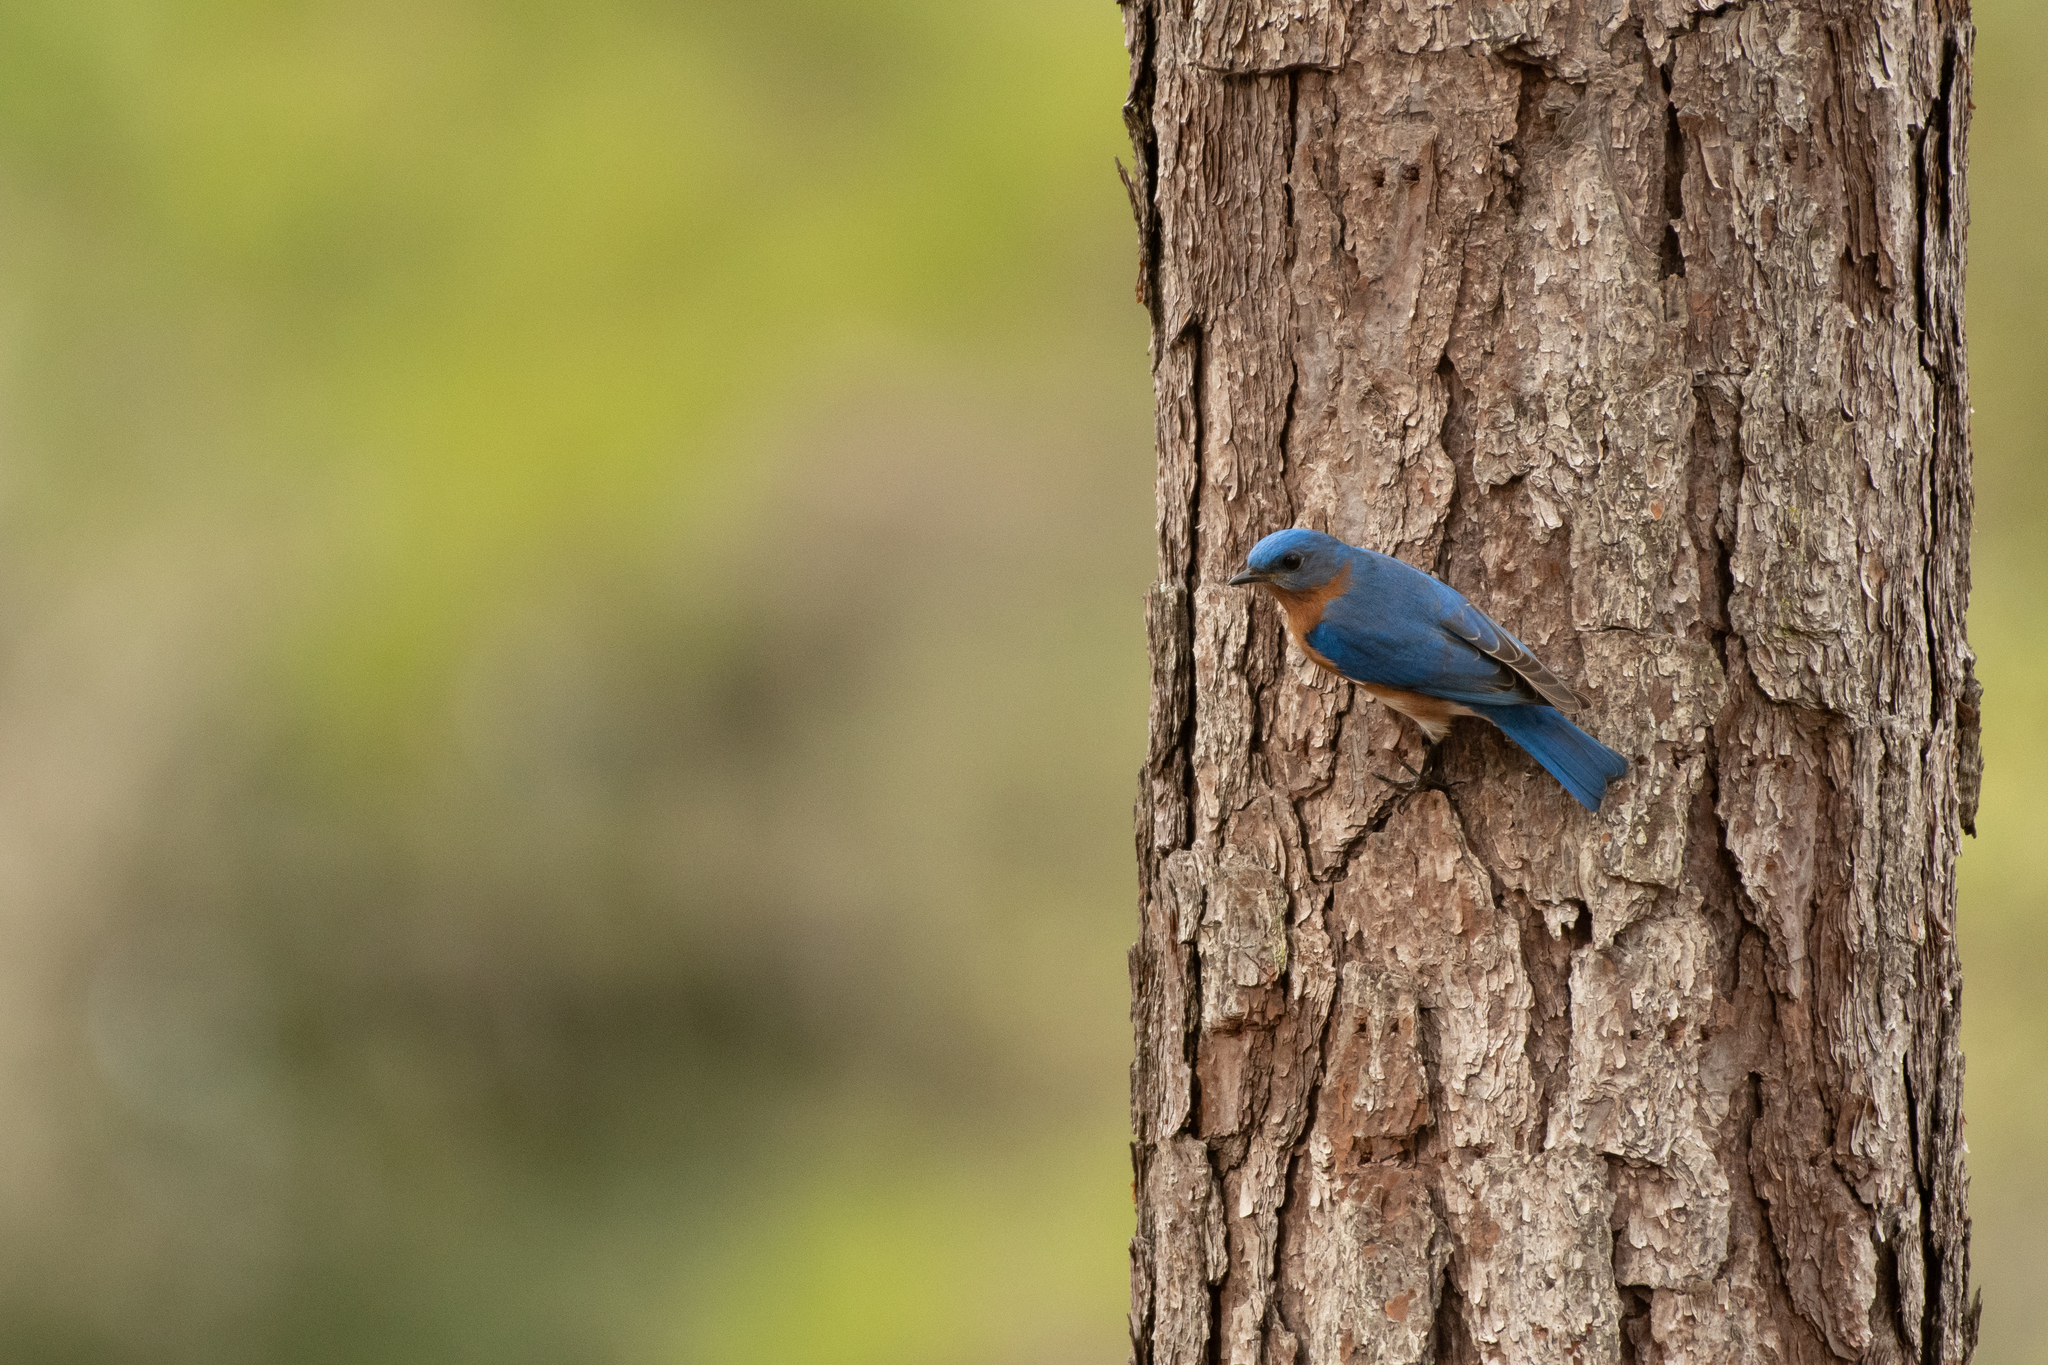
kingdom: Animalia
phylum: Chordata
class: Aves
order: Passeriformes
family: Turdidae
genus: Sialia
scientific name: Sialia sialis
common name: Eastern bluebird
